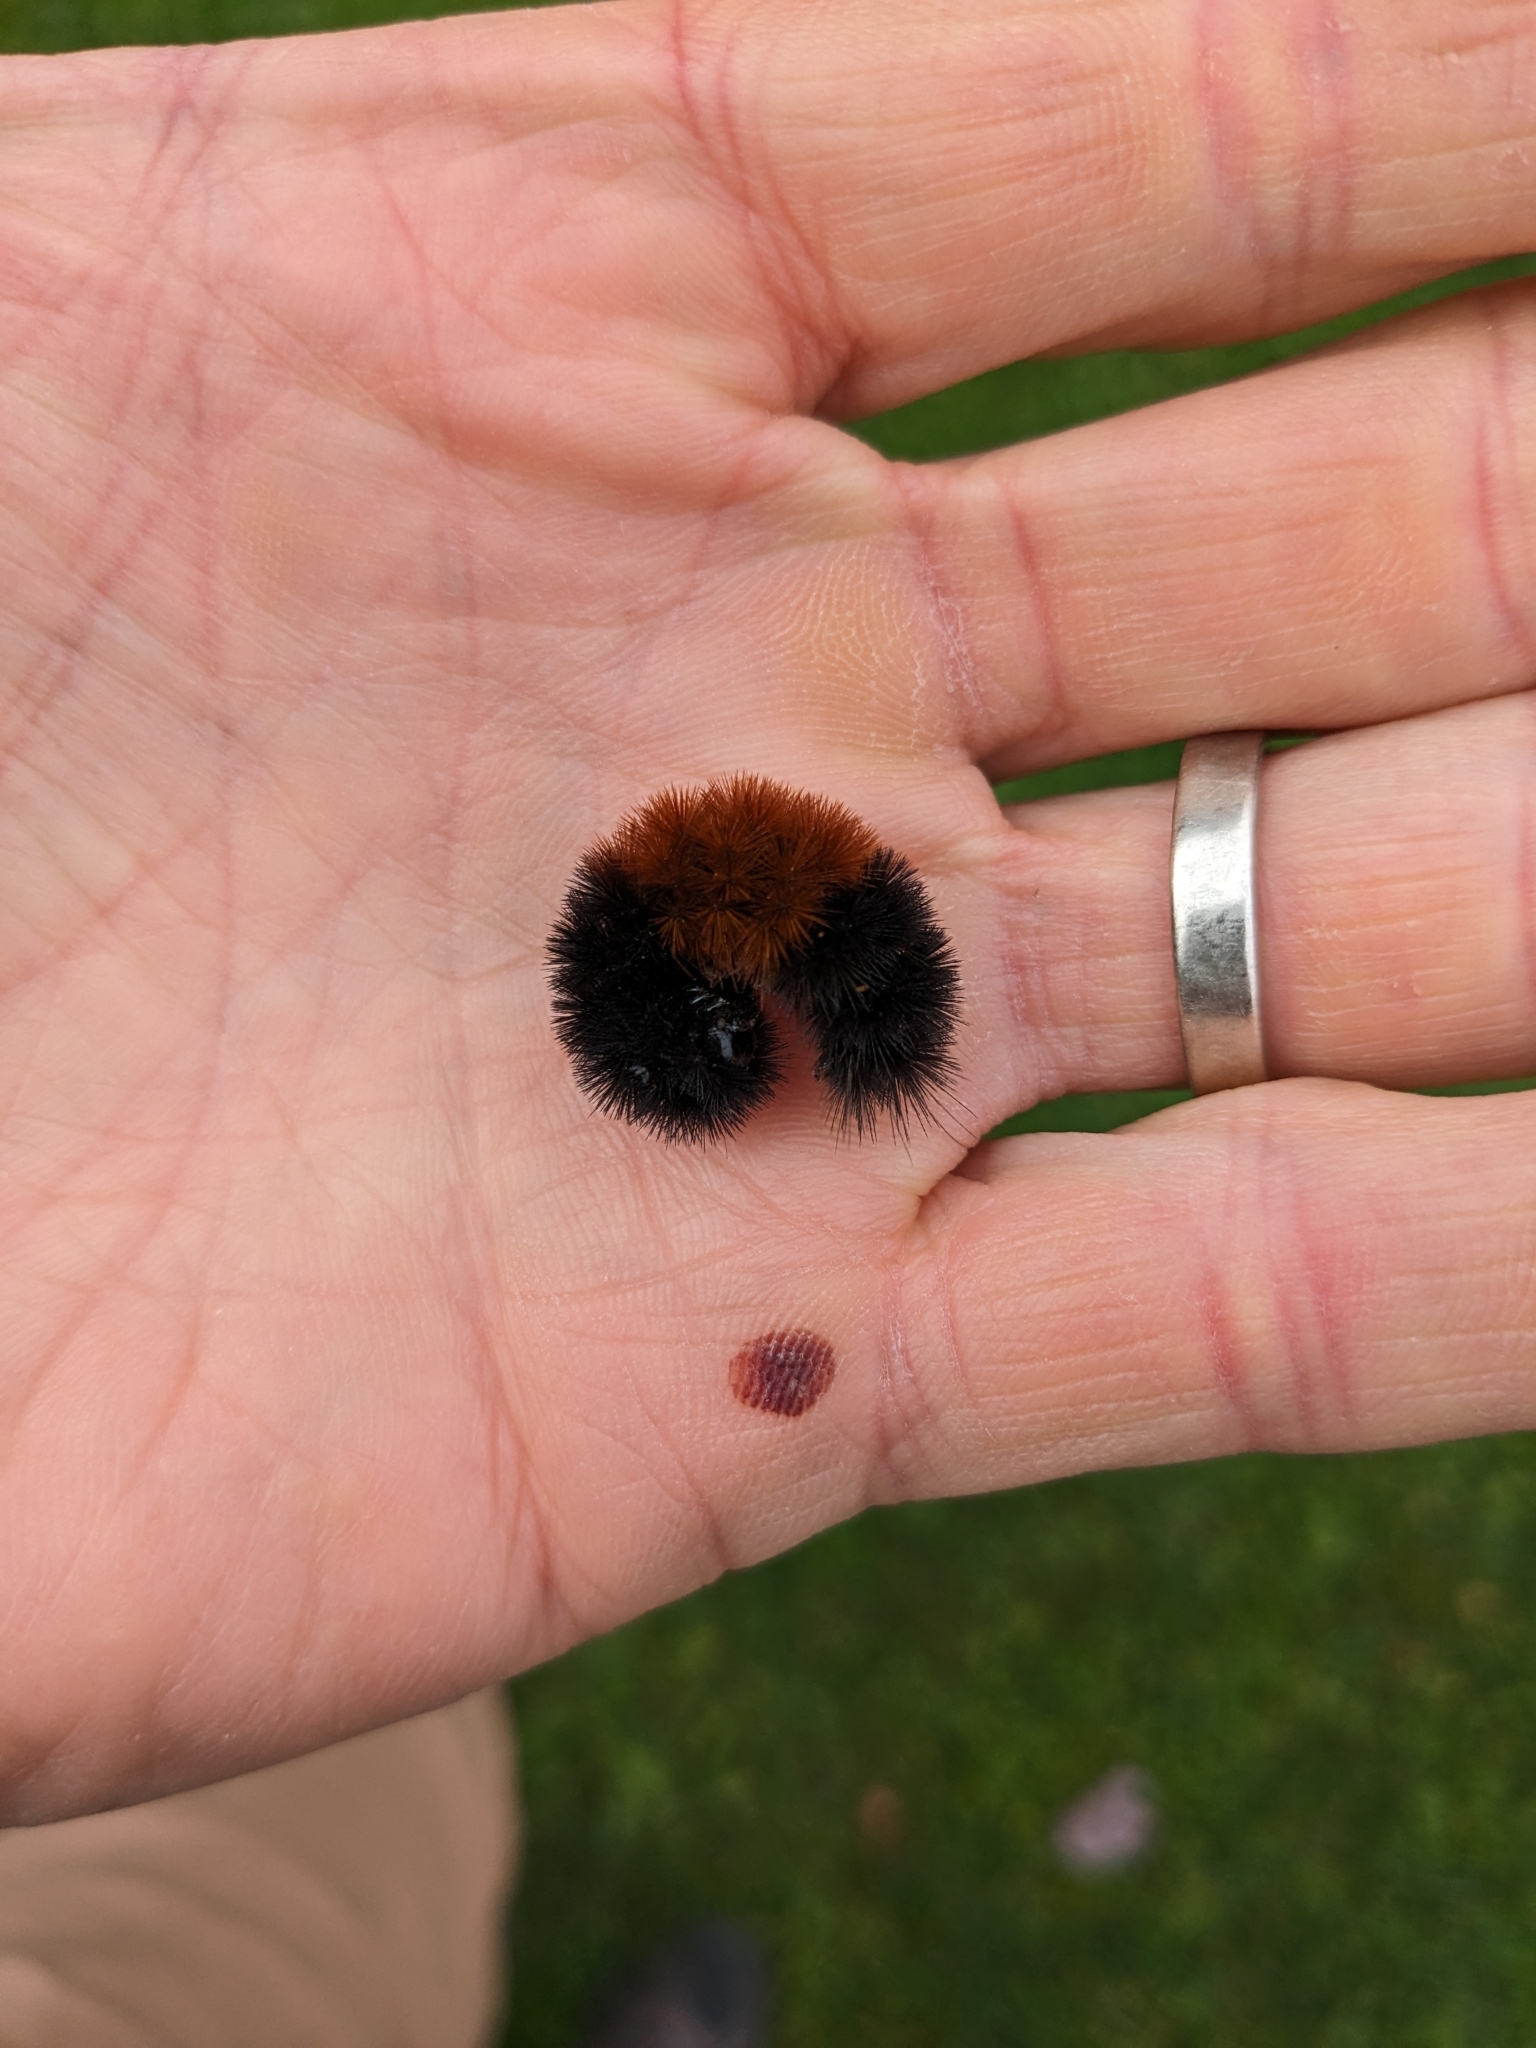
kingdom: Animalia
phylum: Arthropoda
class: Insecta
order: Lepidoptera
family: Erebidae
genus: Pyrrharctia
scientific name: Pyrrharctia isabella
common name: Isabella tiger moth
